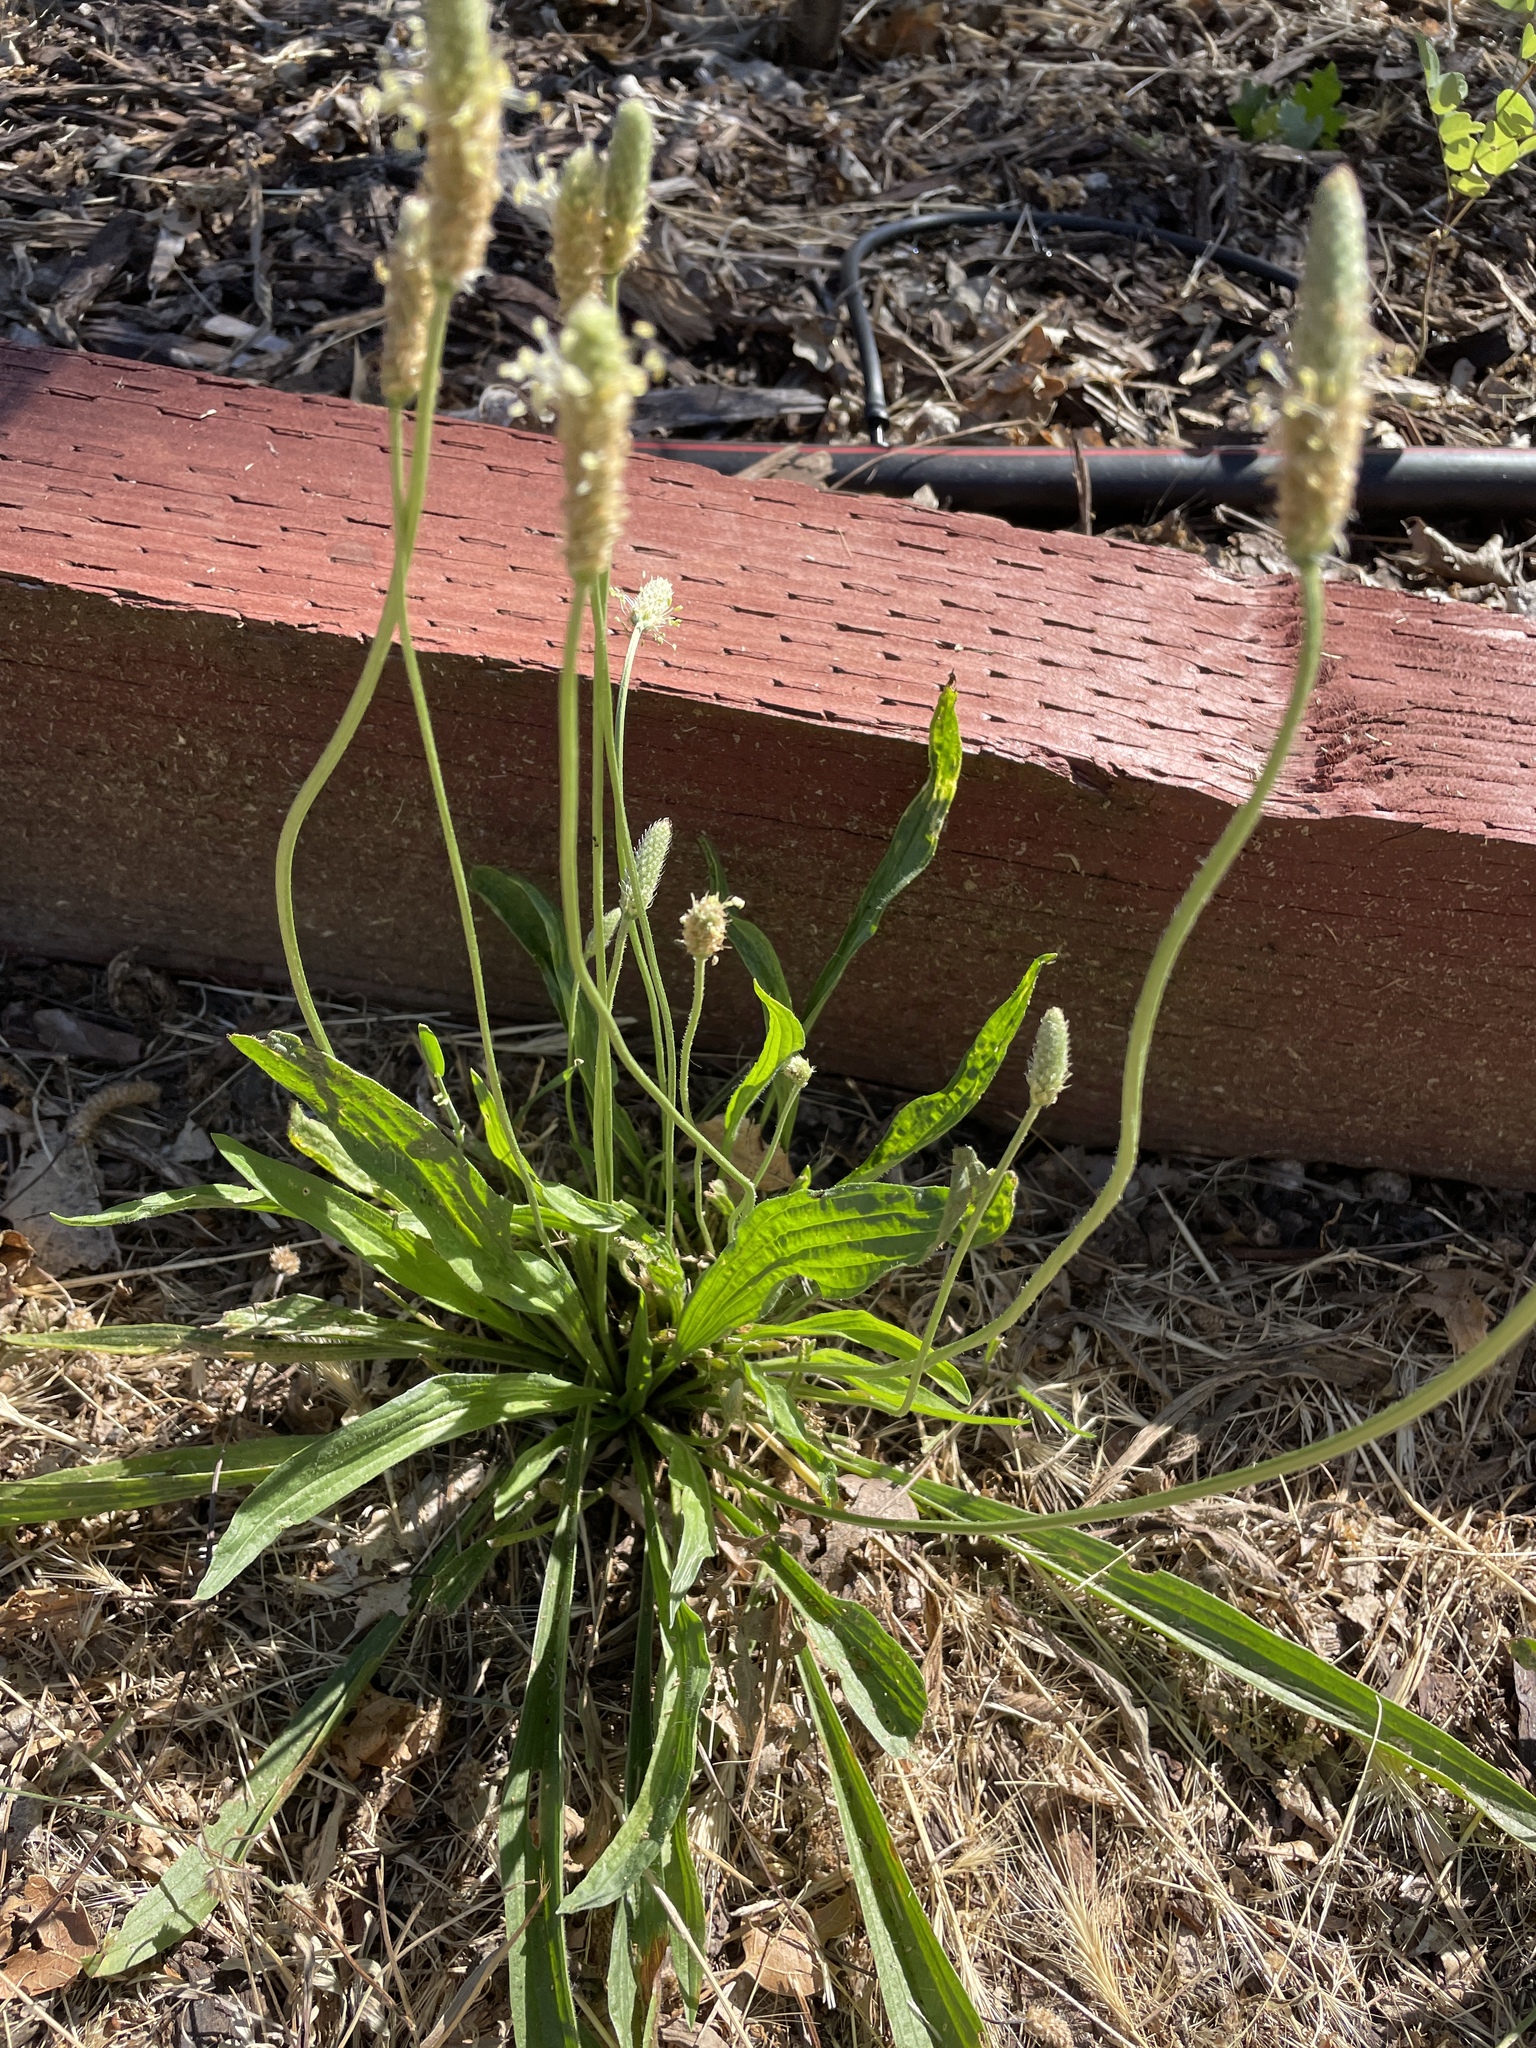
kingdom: Plantae
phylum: Tracheophyta
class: Magnoliopsida
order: Lamiales
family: Plantaginaceae
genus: Plantago
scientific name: Plantago lanceolata
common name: Ribwort plantain
